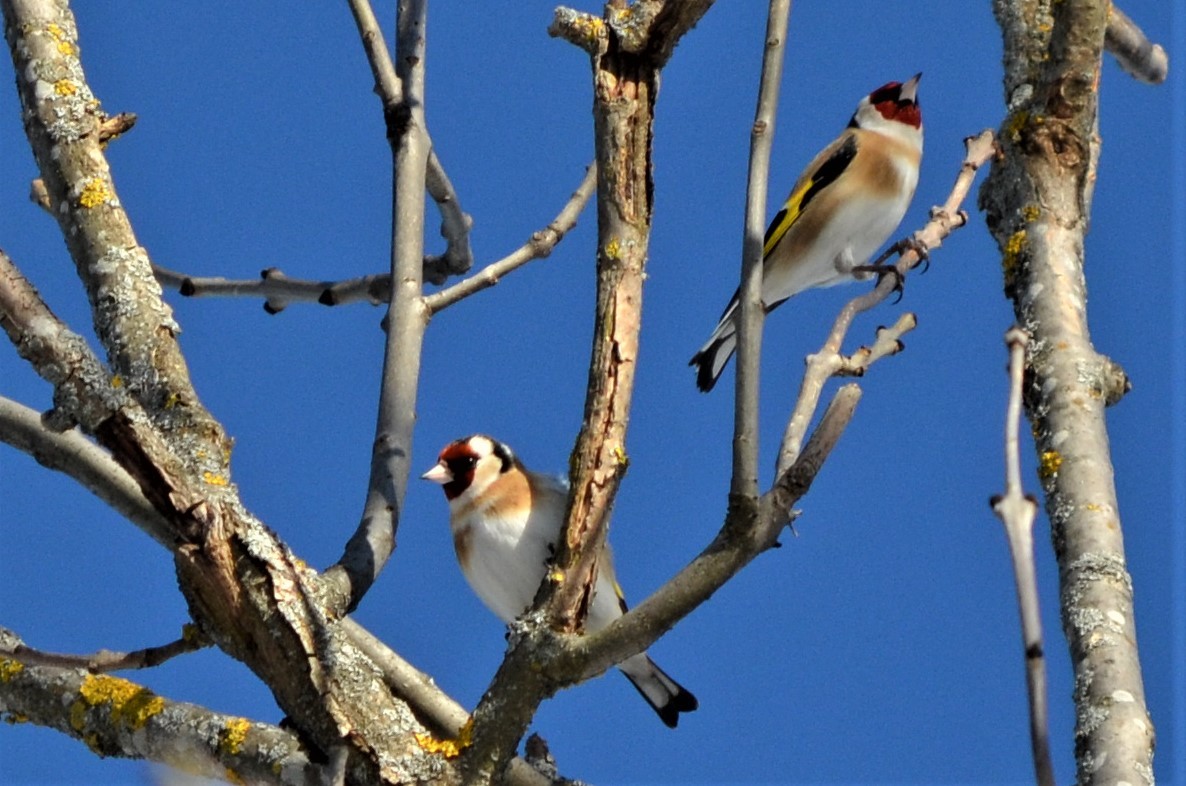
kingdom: Animalia
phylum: Chordata
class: Aves
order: Passeriformes
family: Fringillidae
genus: Carduelis
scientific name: Carduelis carduelis
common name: European goldfinch
